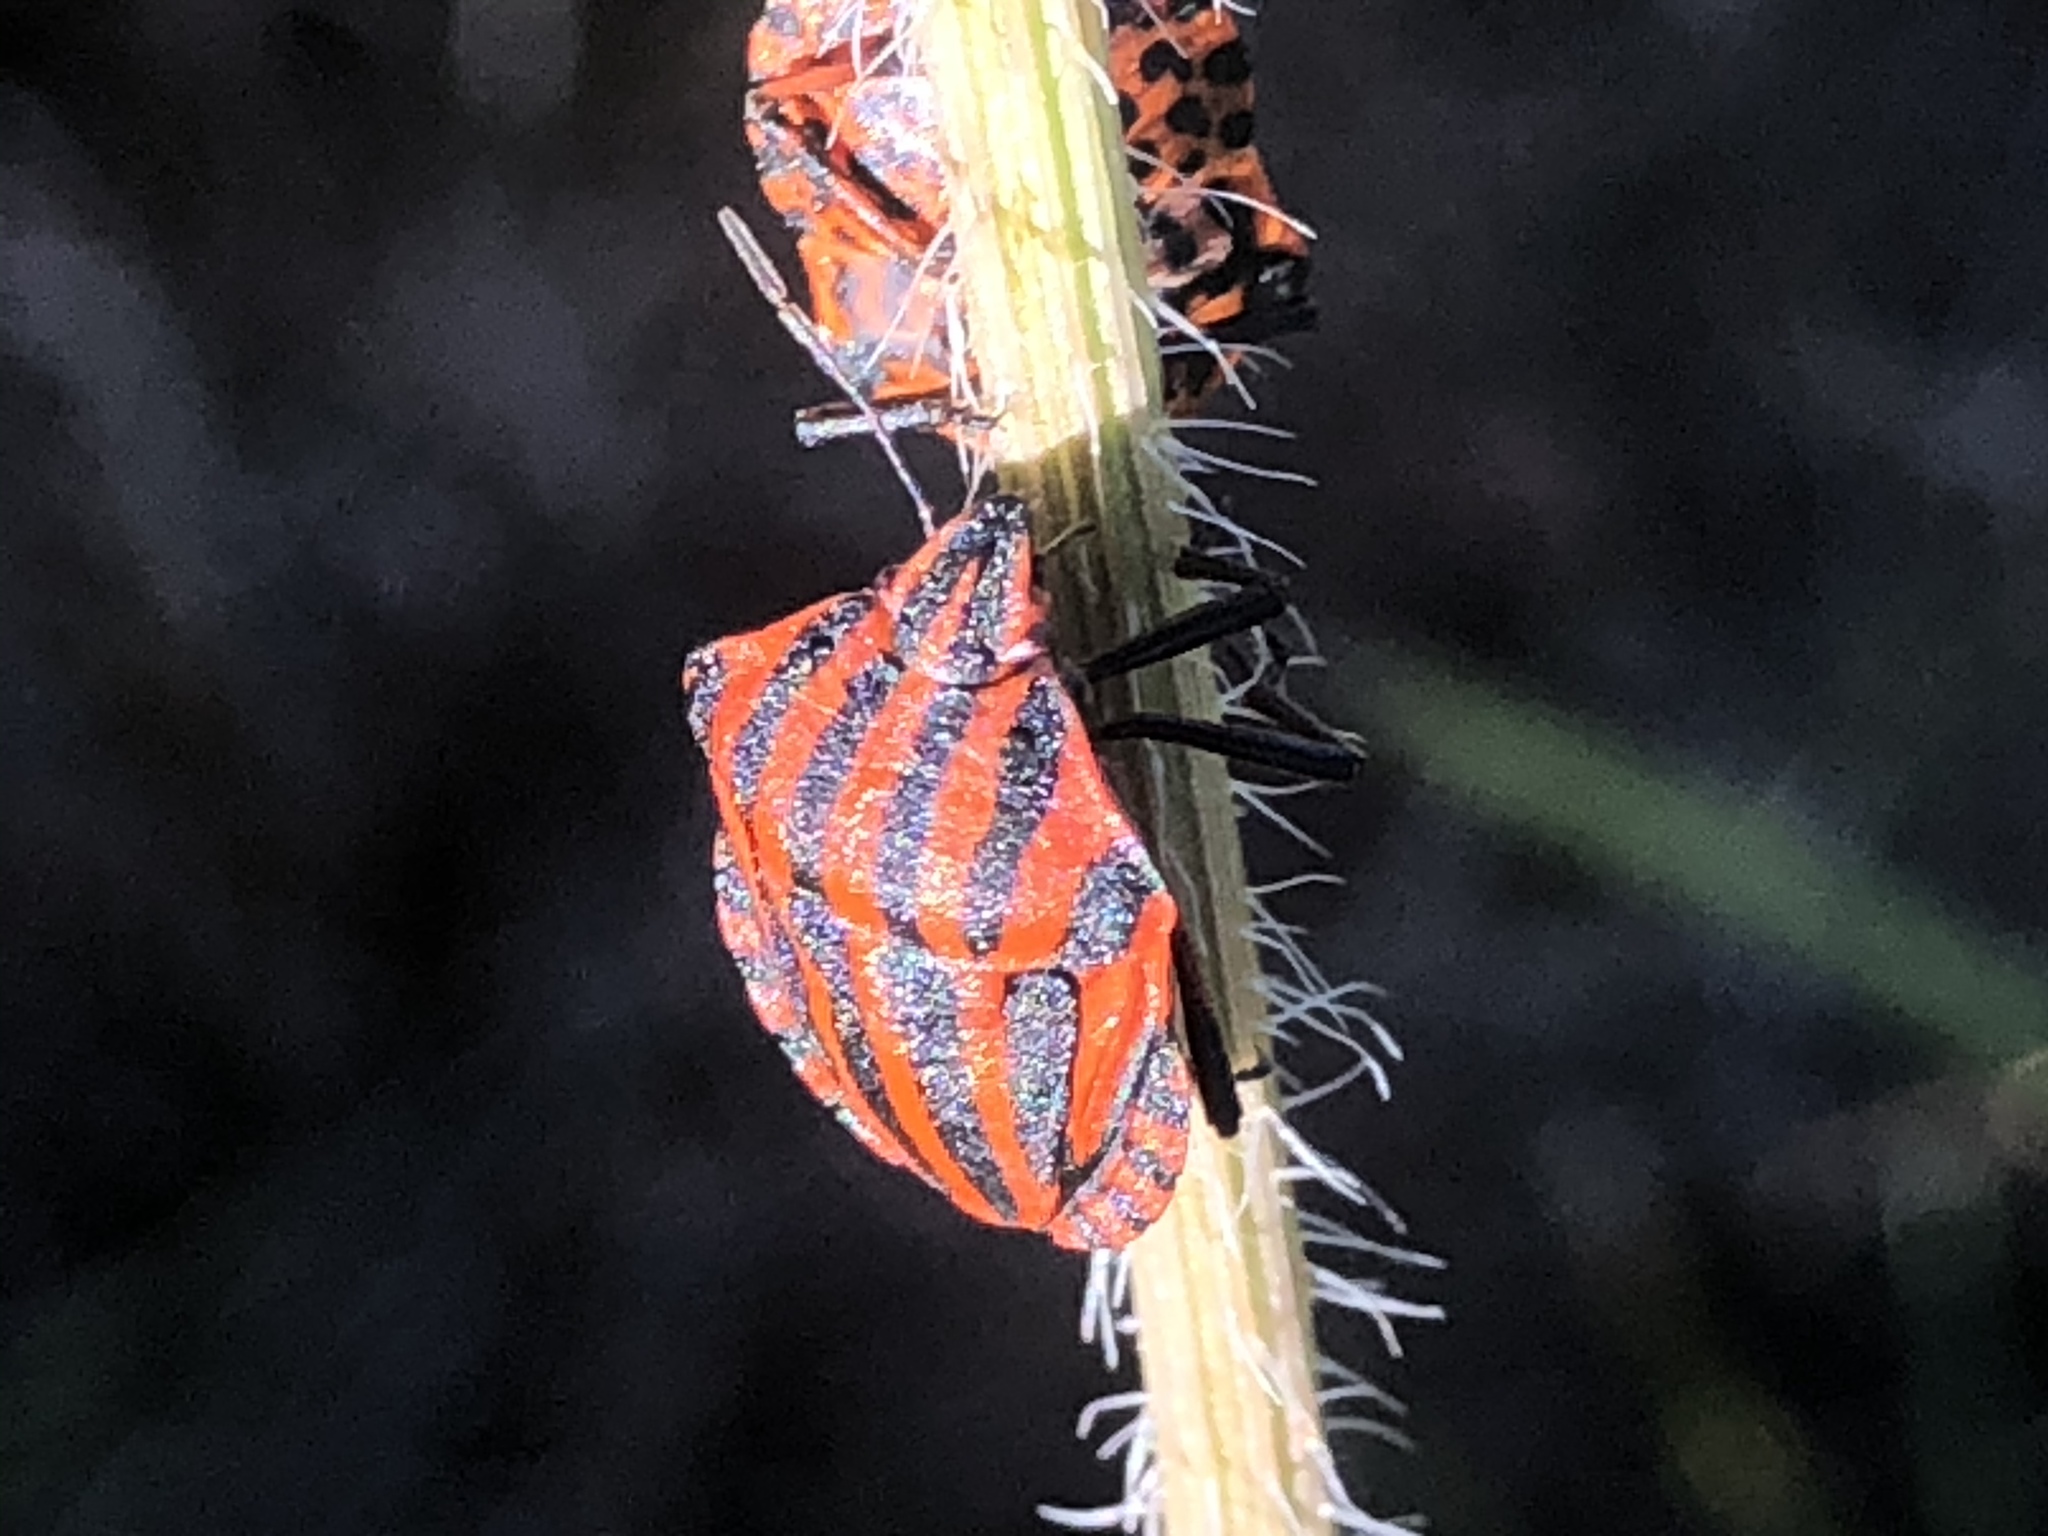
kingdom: Animalia
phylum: Arthropoda
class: Insecta
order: Hemiptera
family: Pentatomidae
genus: Graphosoma
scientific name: Graphosoma italicum
